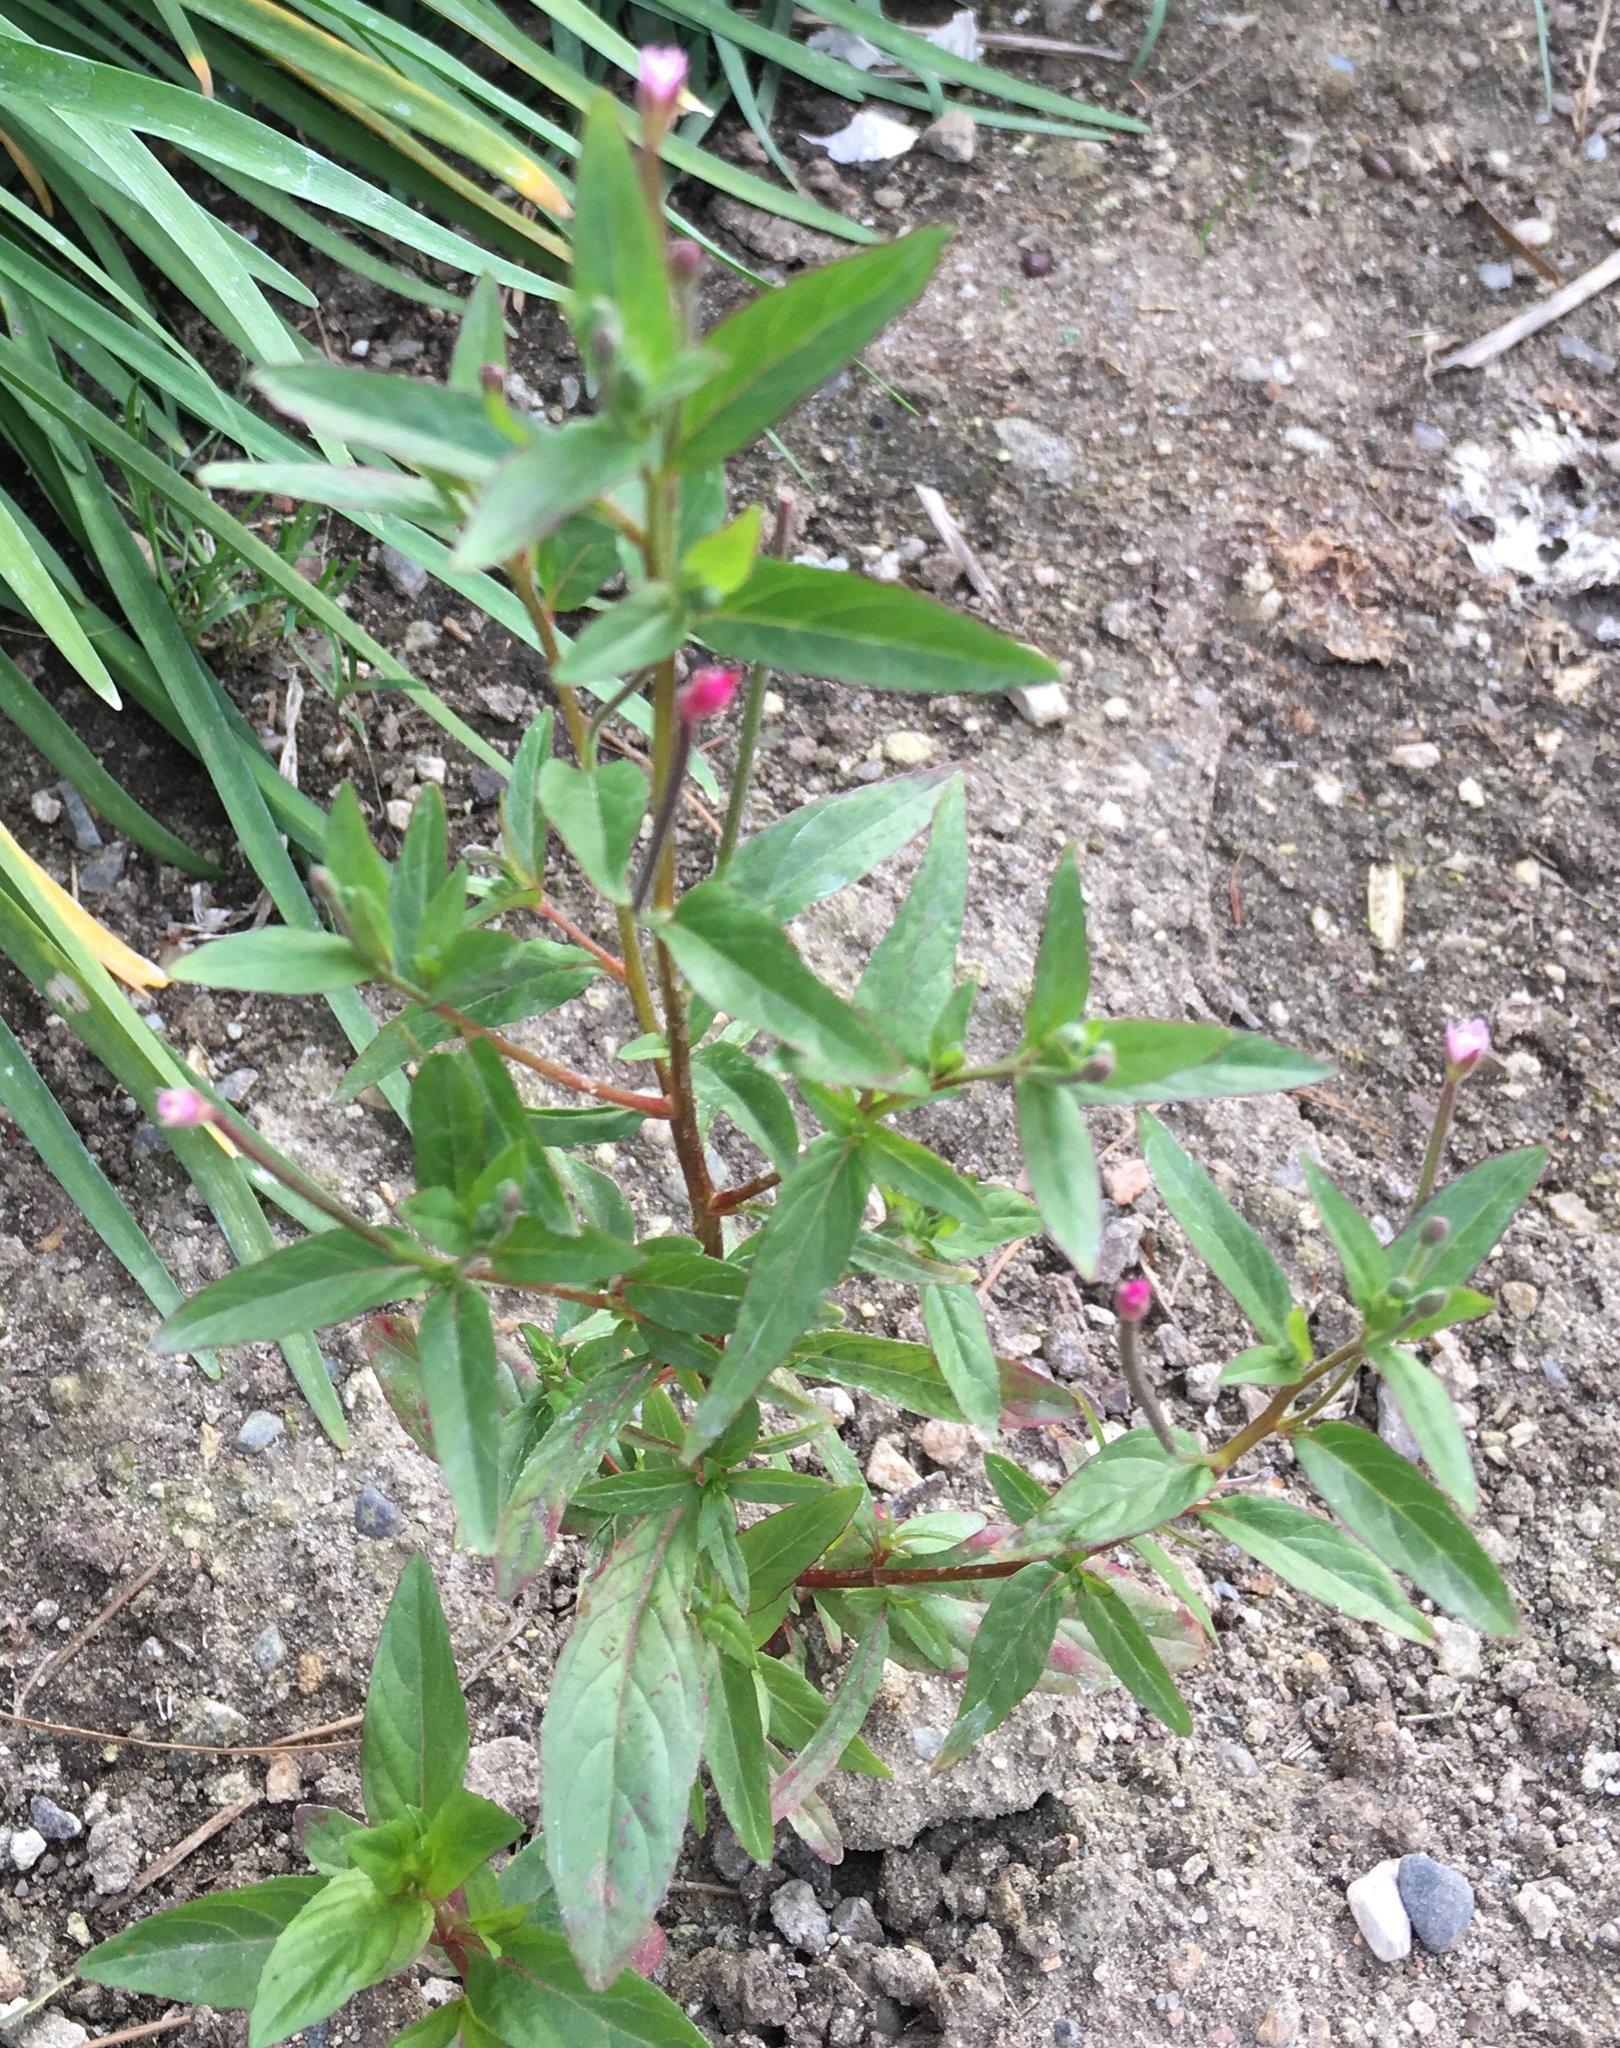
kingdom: Plantae
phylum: Tracheophyta
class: Magnoliopsida
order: Myrtales
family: Onagraceae
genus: Epilobium
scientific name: Epilobium ciliatum
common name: American willowherb
